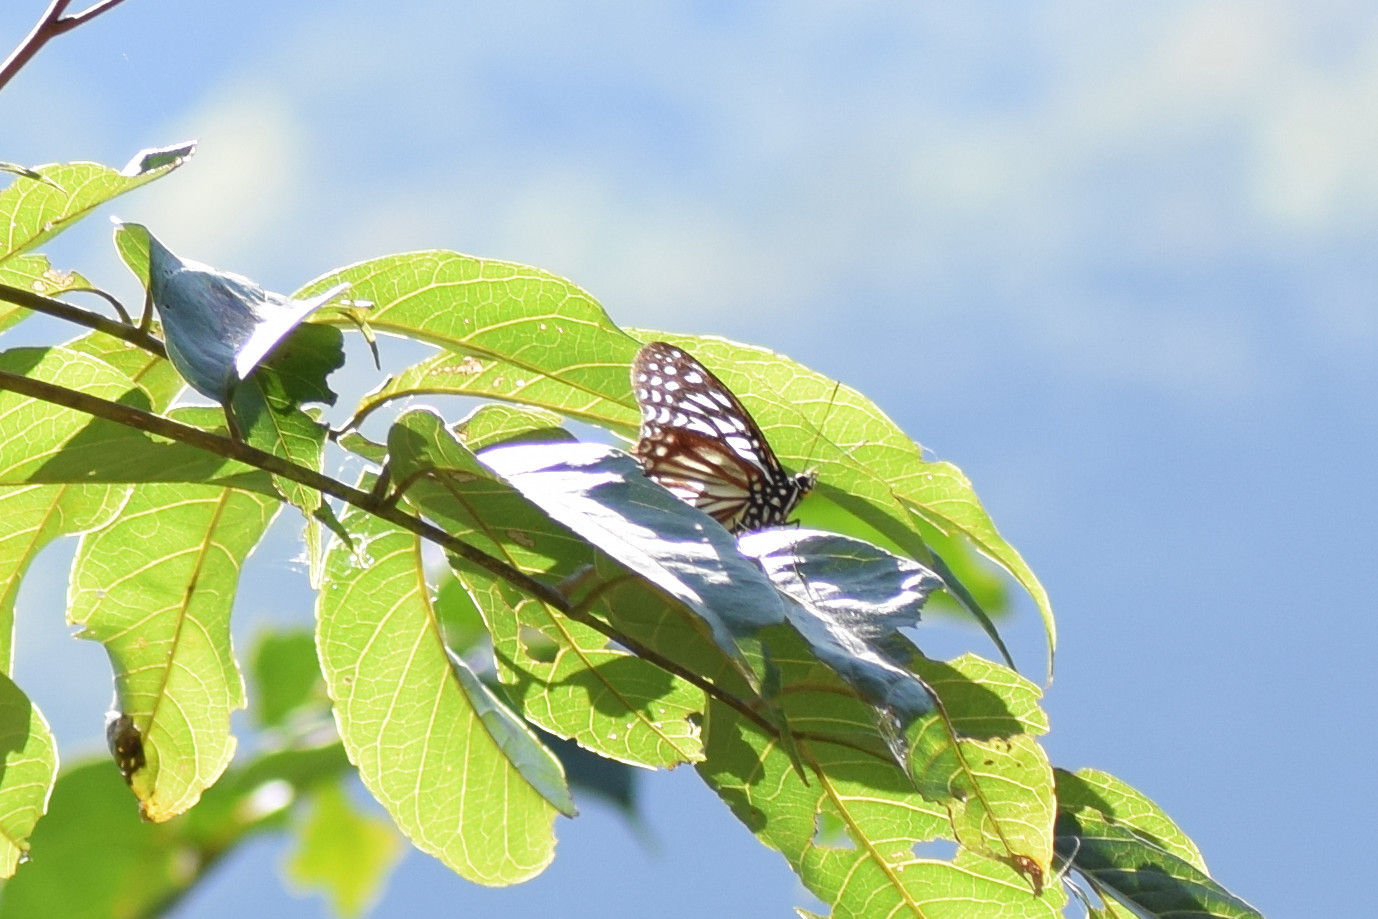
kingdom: Animalia
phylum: Arthropoda
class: Insecta
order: Lepidoptera
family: Nymphalidae
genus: Hestinalis
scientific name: Hestinalis nama
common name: Circe
